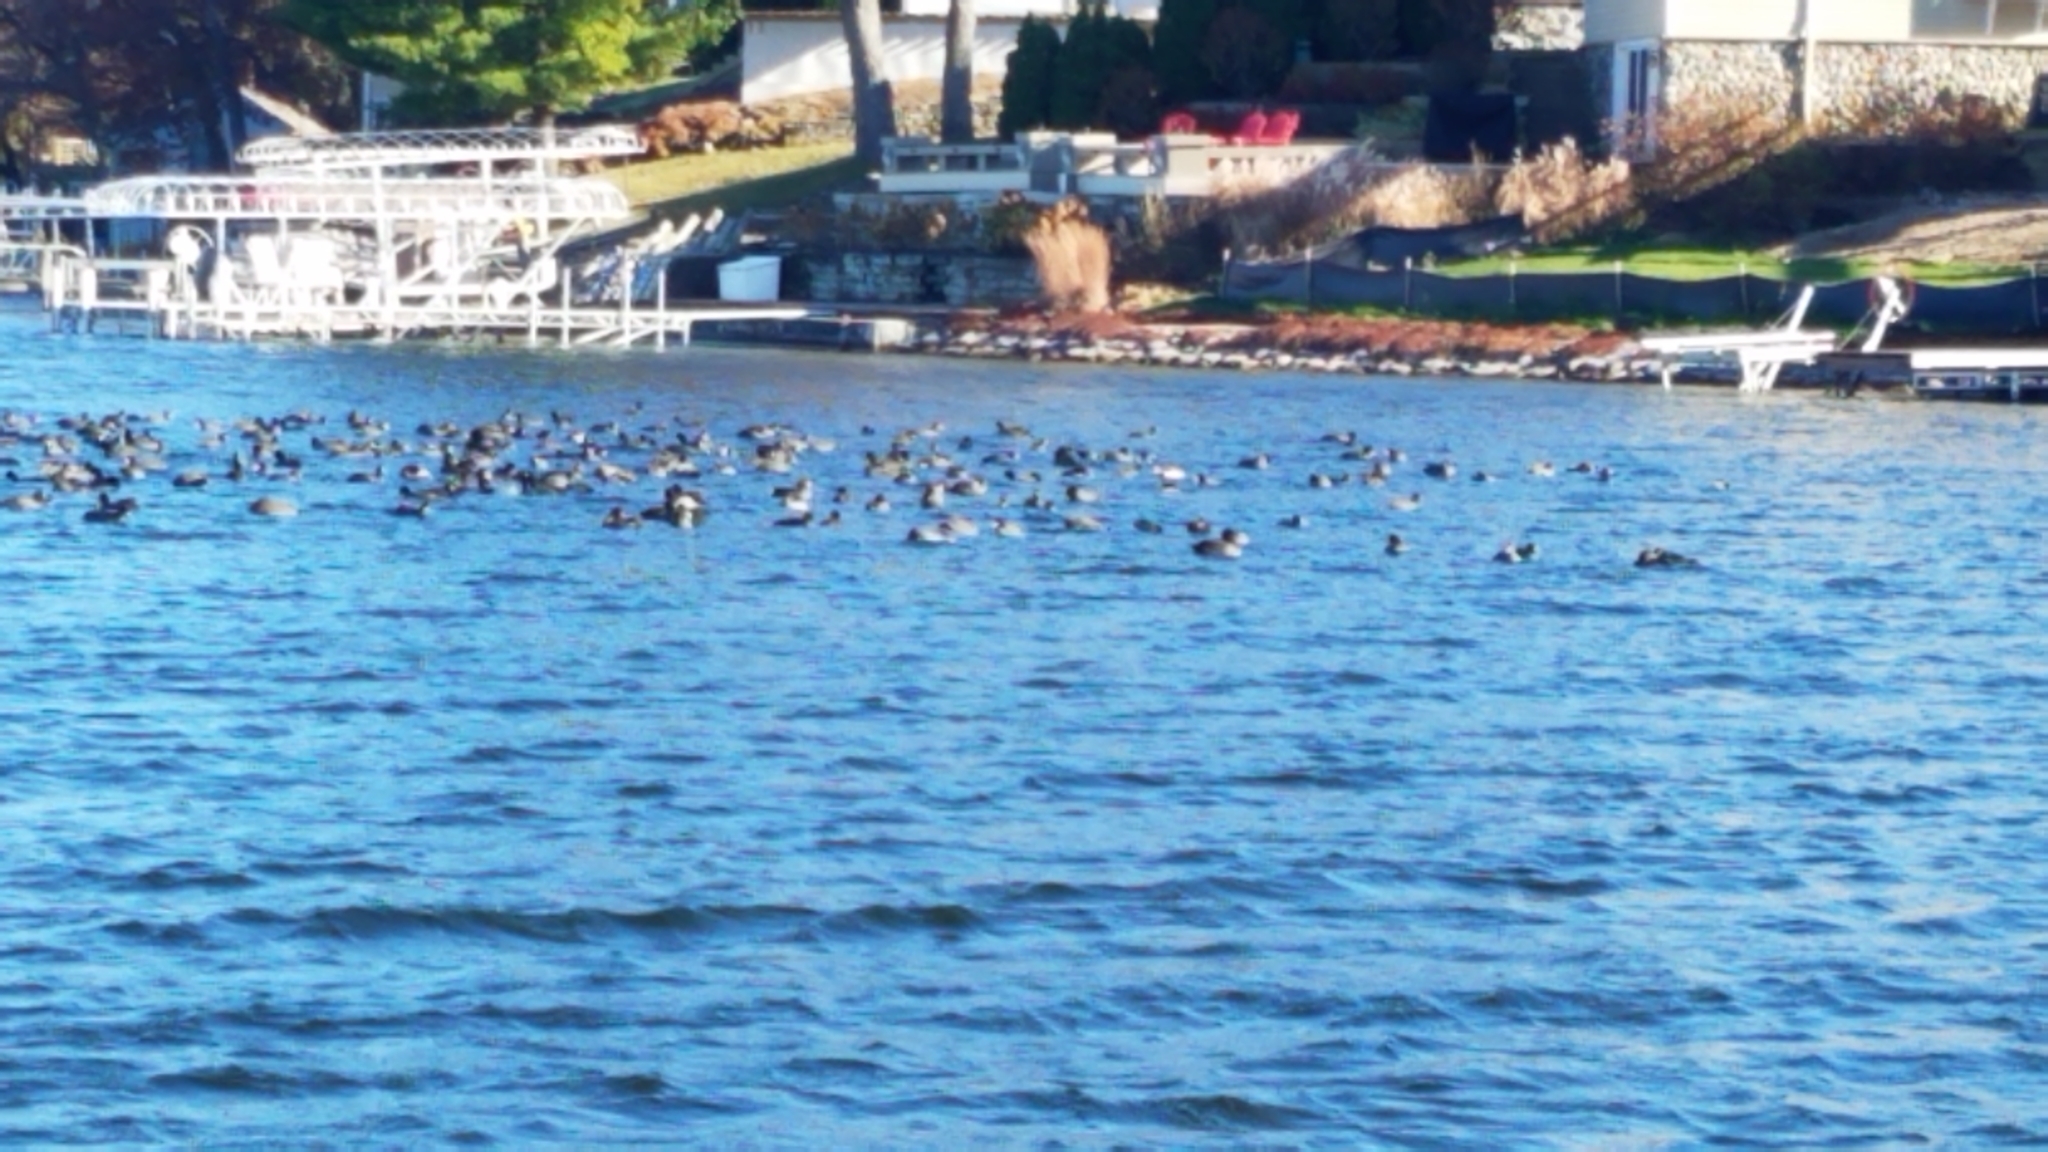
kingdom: Animalia
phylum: Chordata
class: Aves
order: Gruiformes
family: Rallidae
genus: Fulica
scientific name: Fulica americana
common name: American coot
